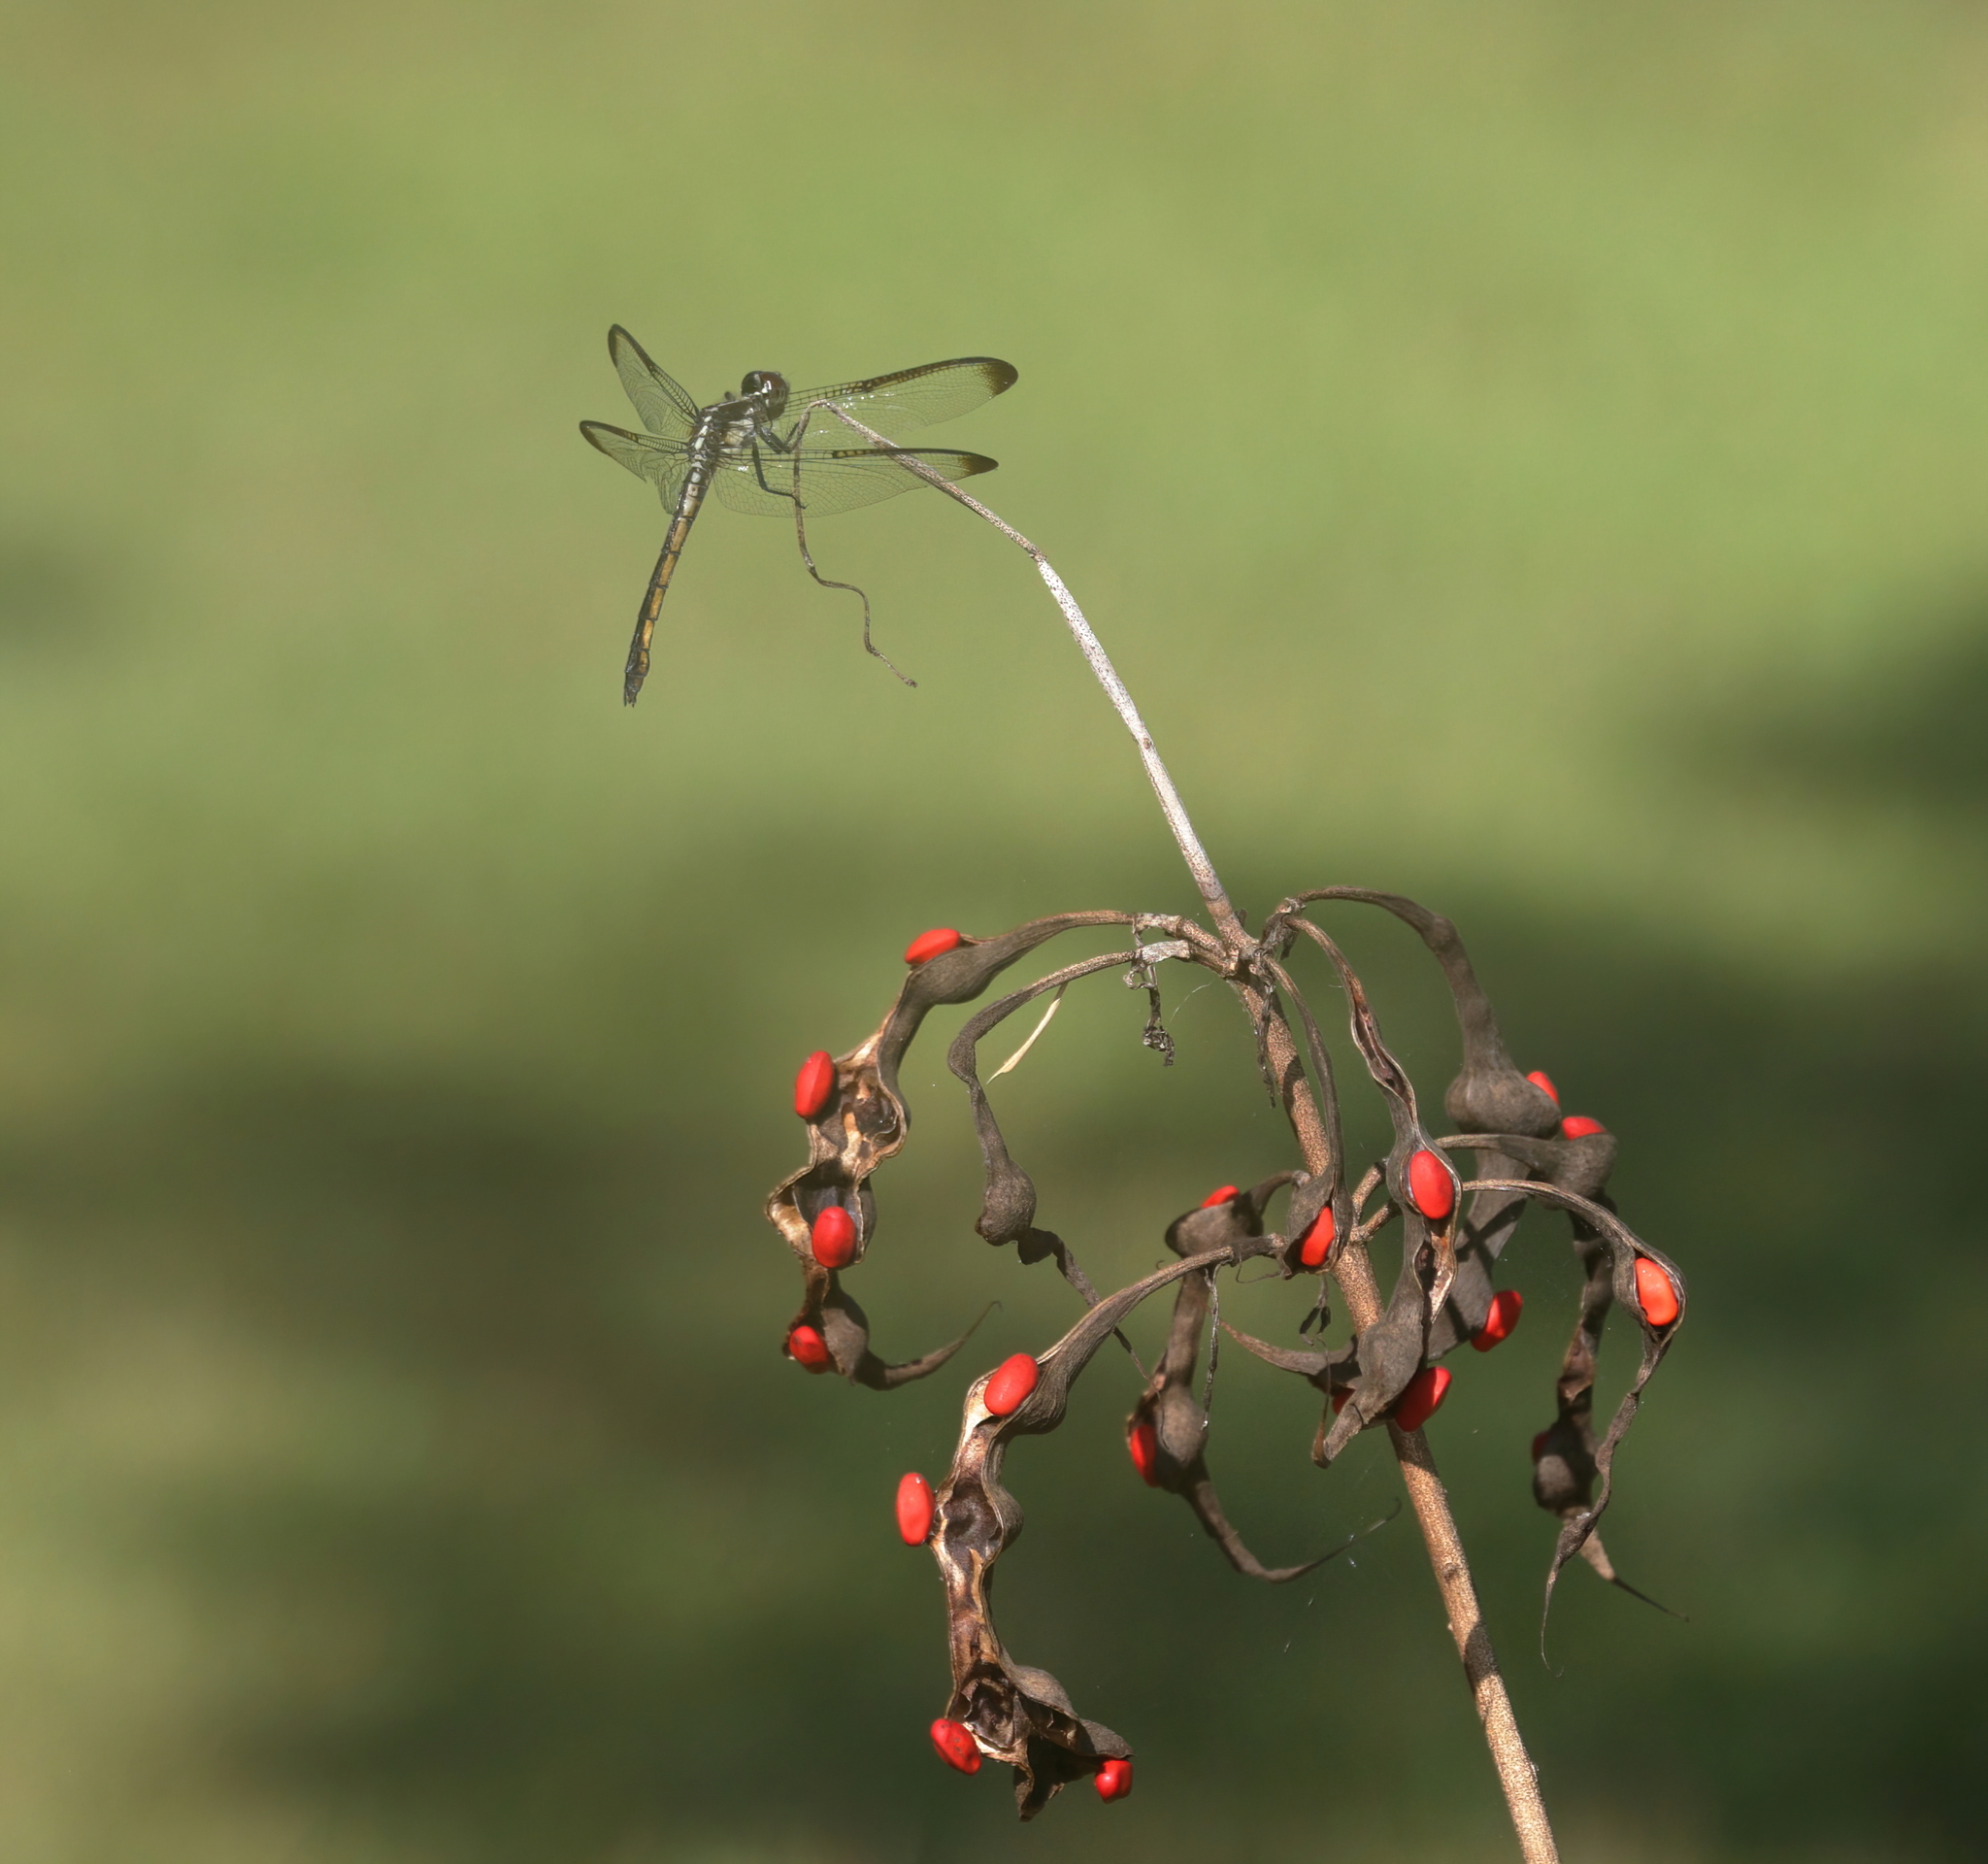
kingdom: Animalia
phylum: Arthropoda
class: Insecta
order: Odonata
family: Libellulidae
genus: Libellula
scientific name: Libellula incesta
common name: Slaty skimmer
